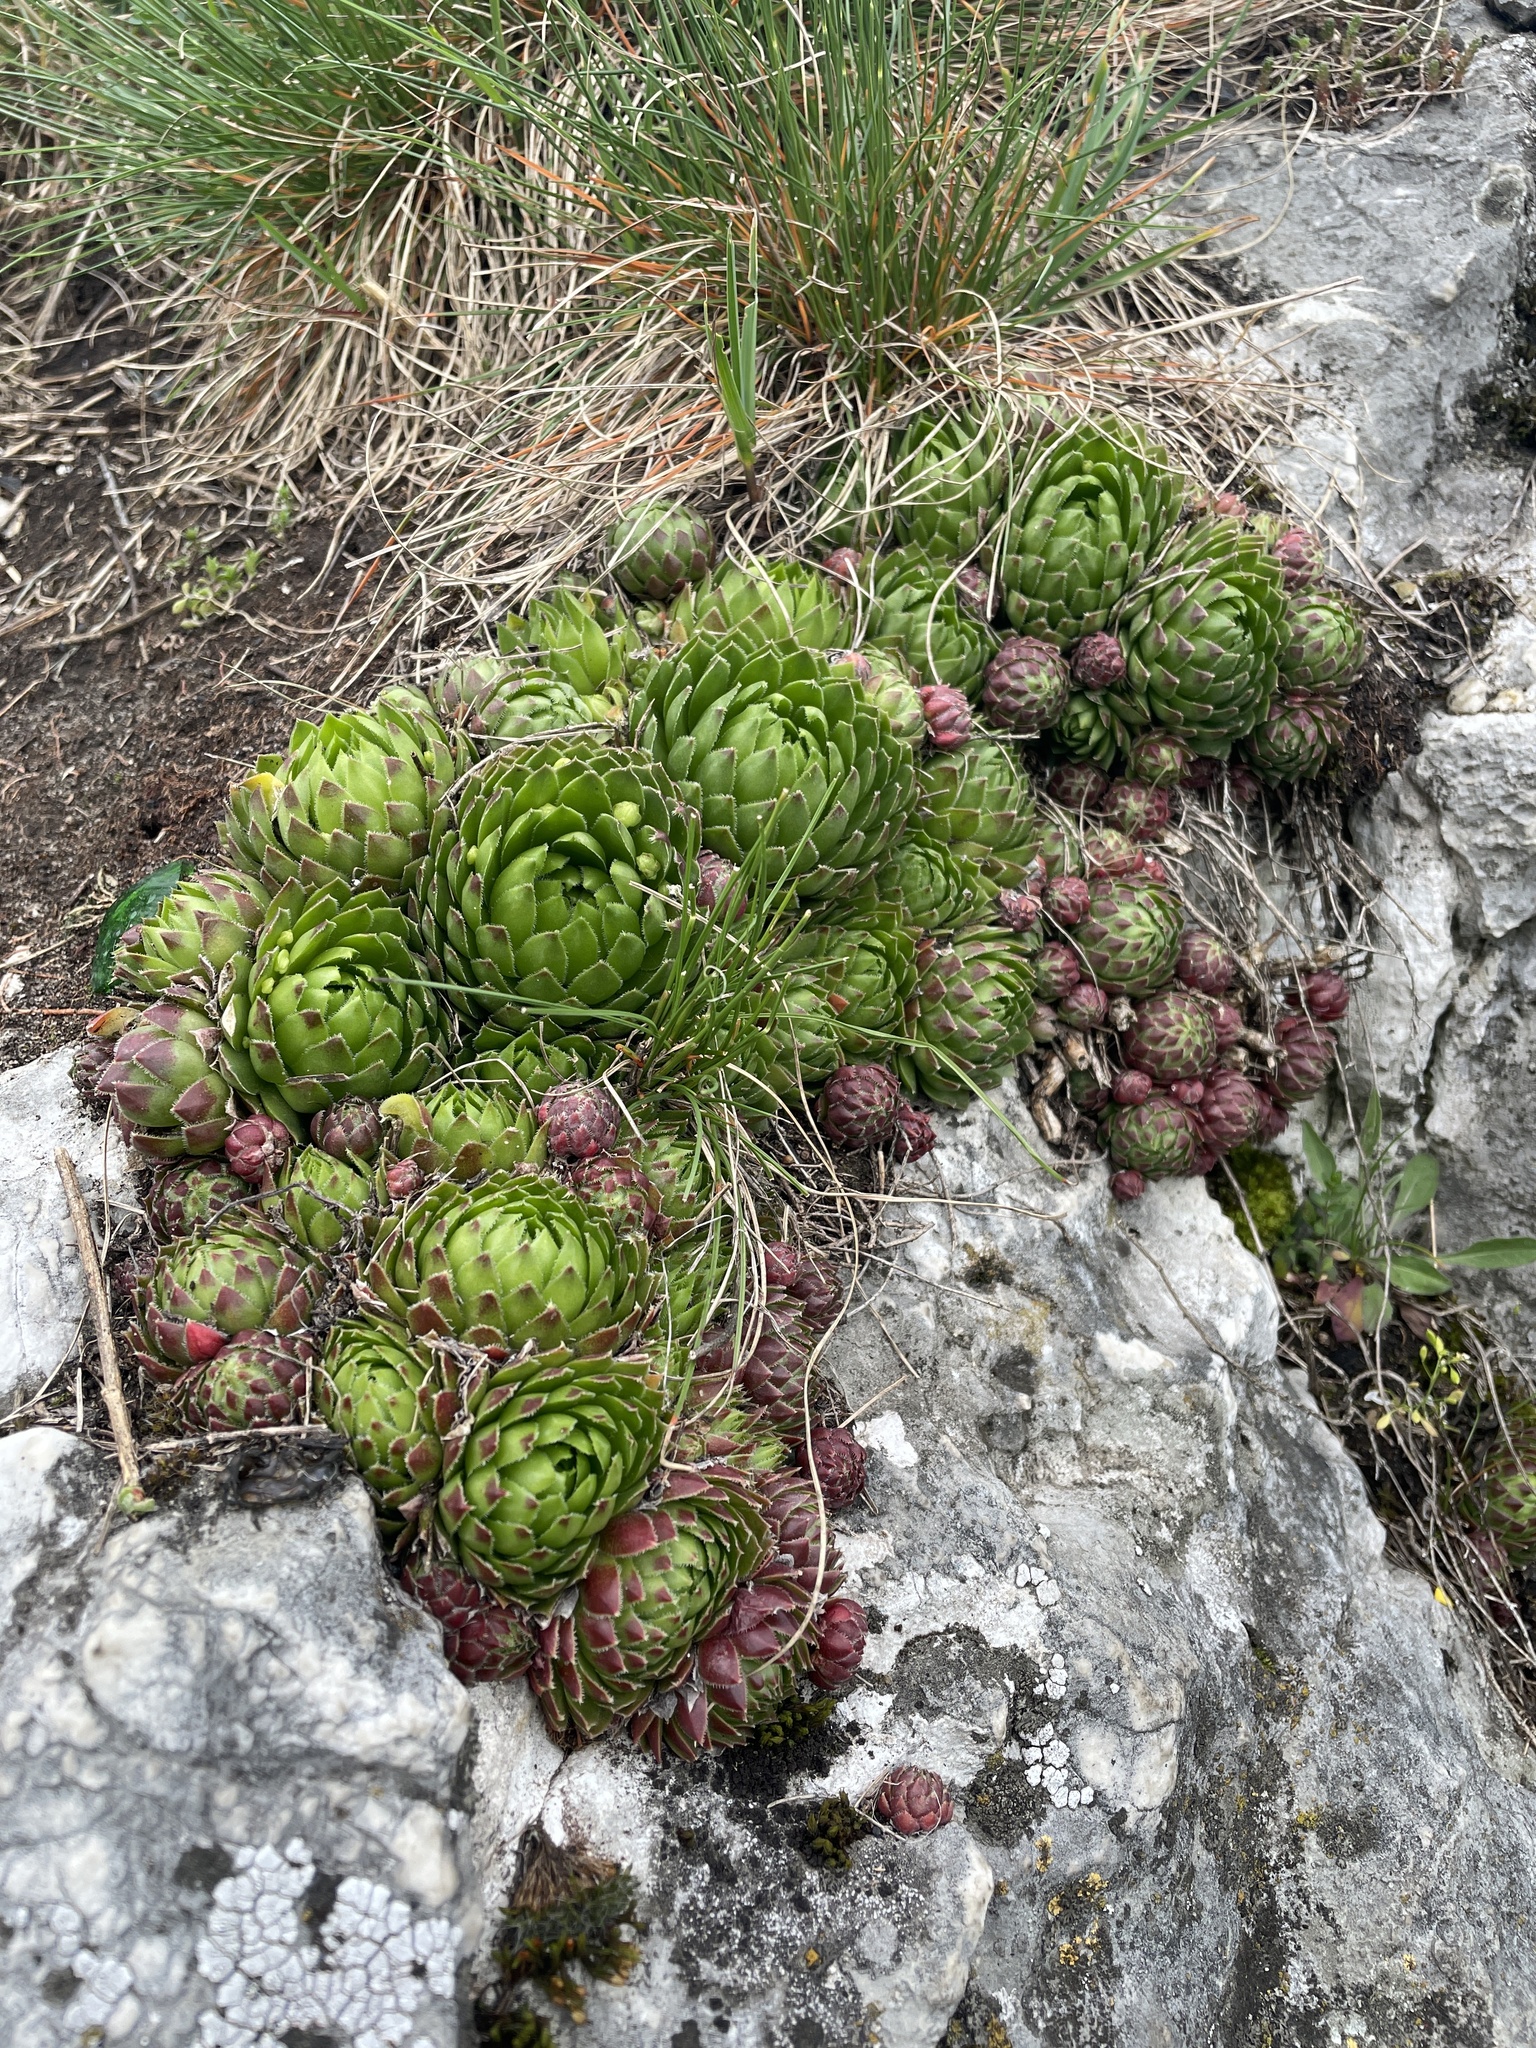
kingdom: Plantae
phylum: Tracheophyta
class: Magnoliopsida
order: Saxifragales
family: Crassulaceae
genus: Sempervivum
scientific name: Sempervivum globiferum
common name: Rolling hen-and-chicks
